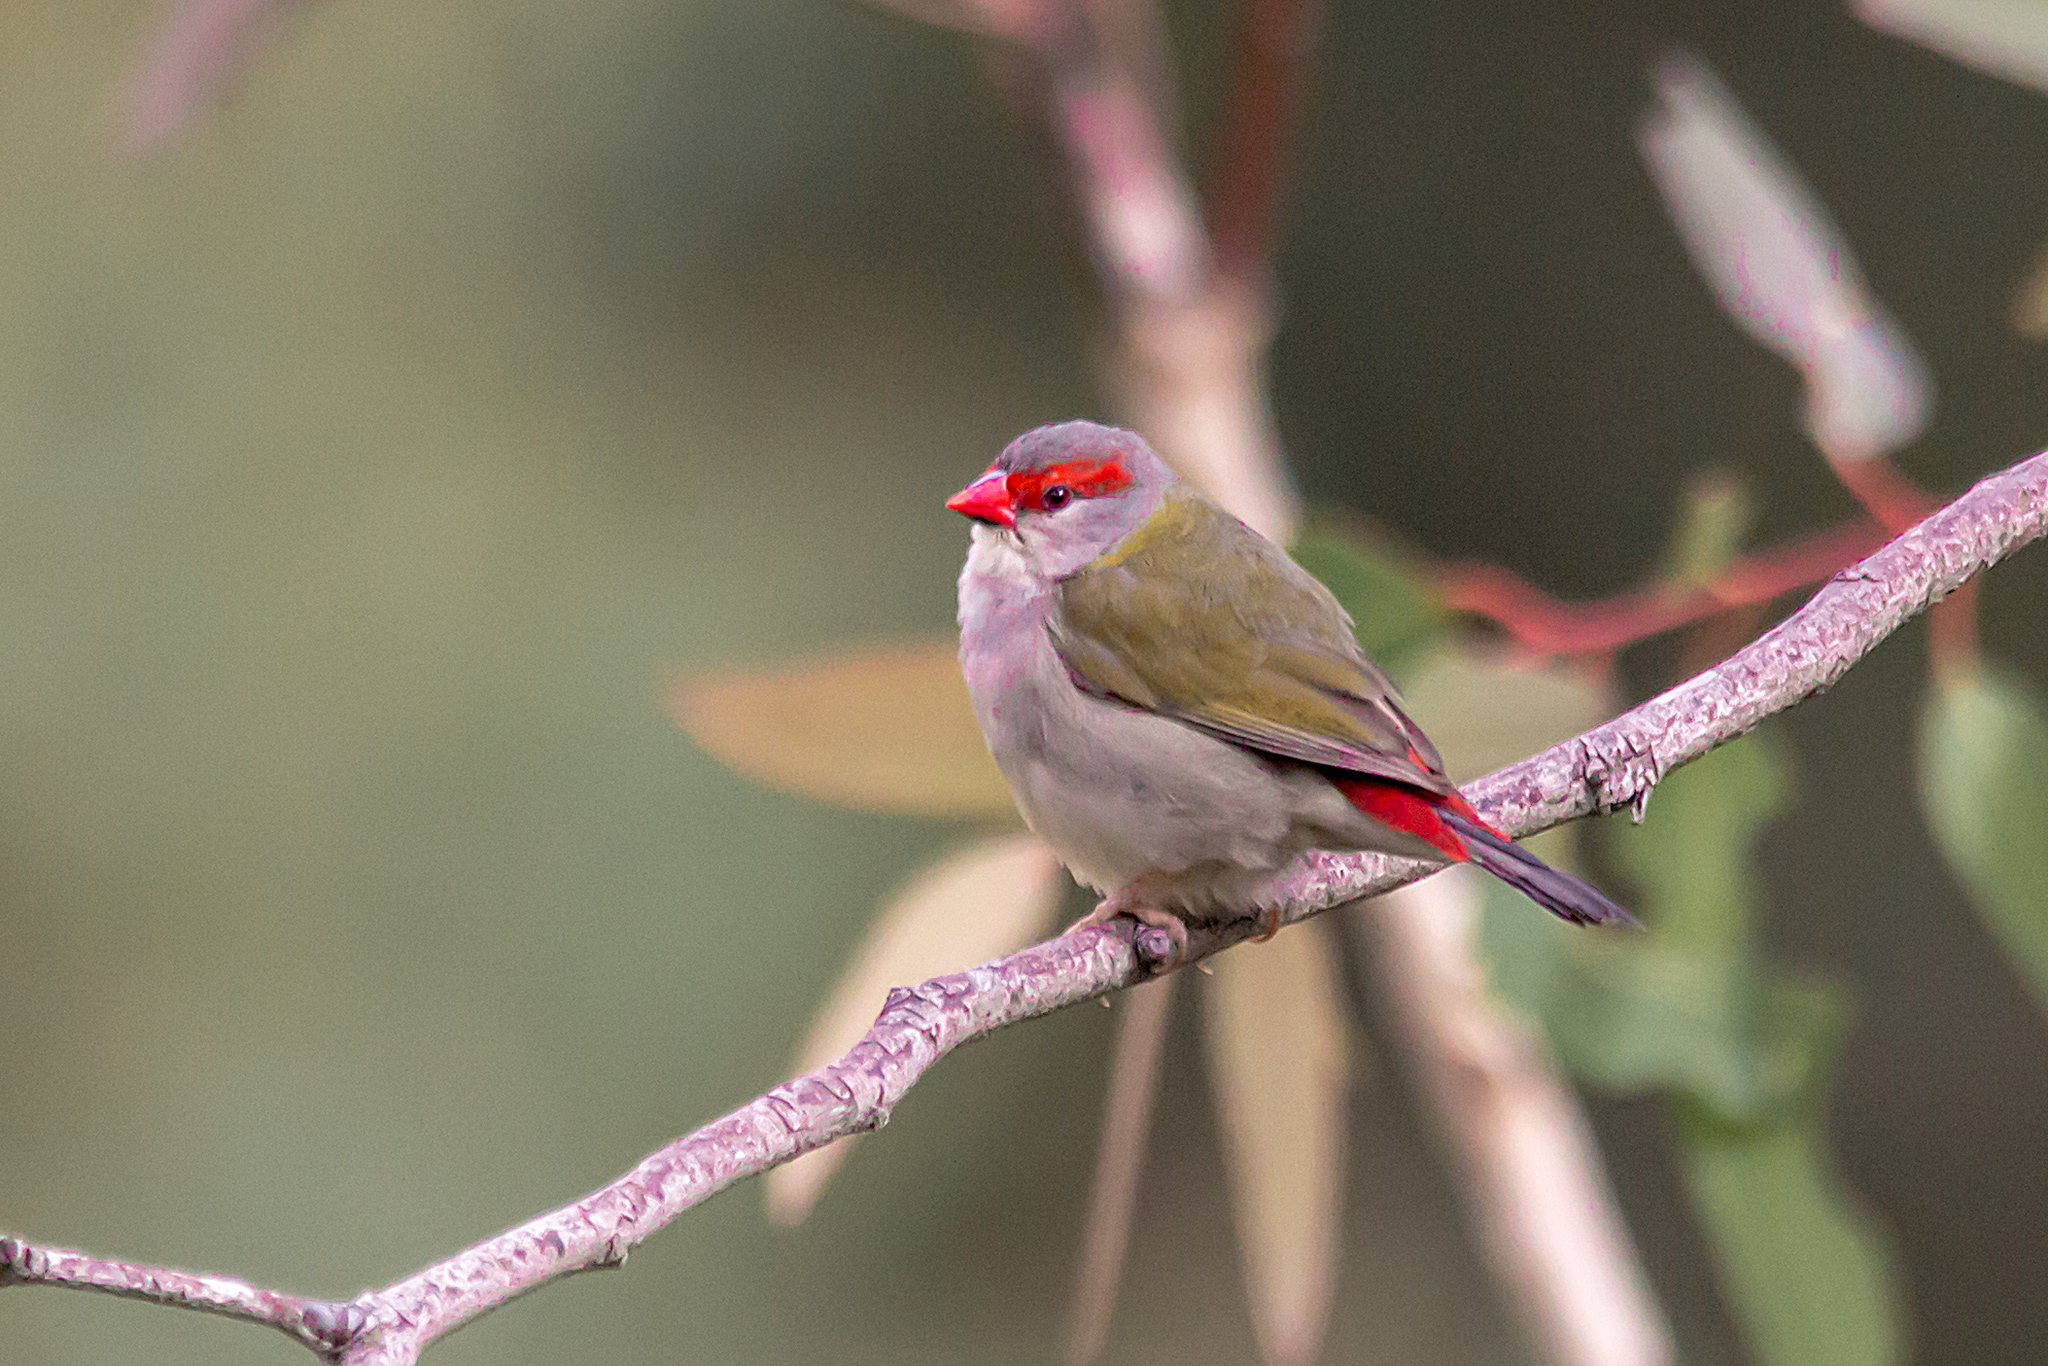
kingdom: Animalia
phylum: Chordata
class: Aves
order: Passeriformes
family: Estrildidae
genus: Neochmia
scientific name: Neochmia temporalis
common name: Red-browed finch
